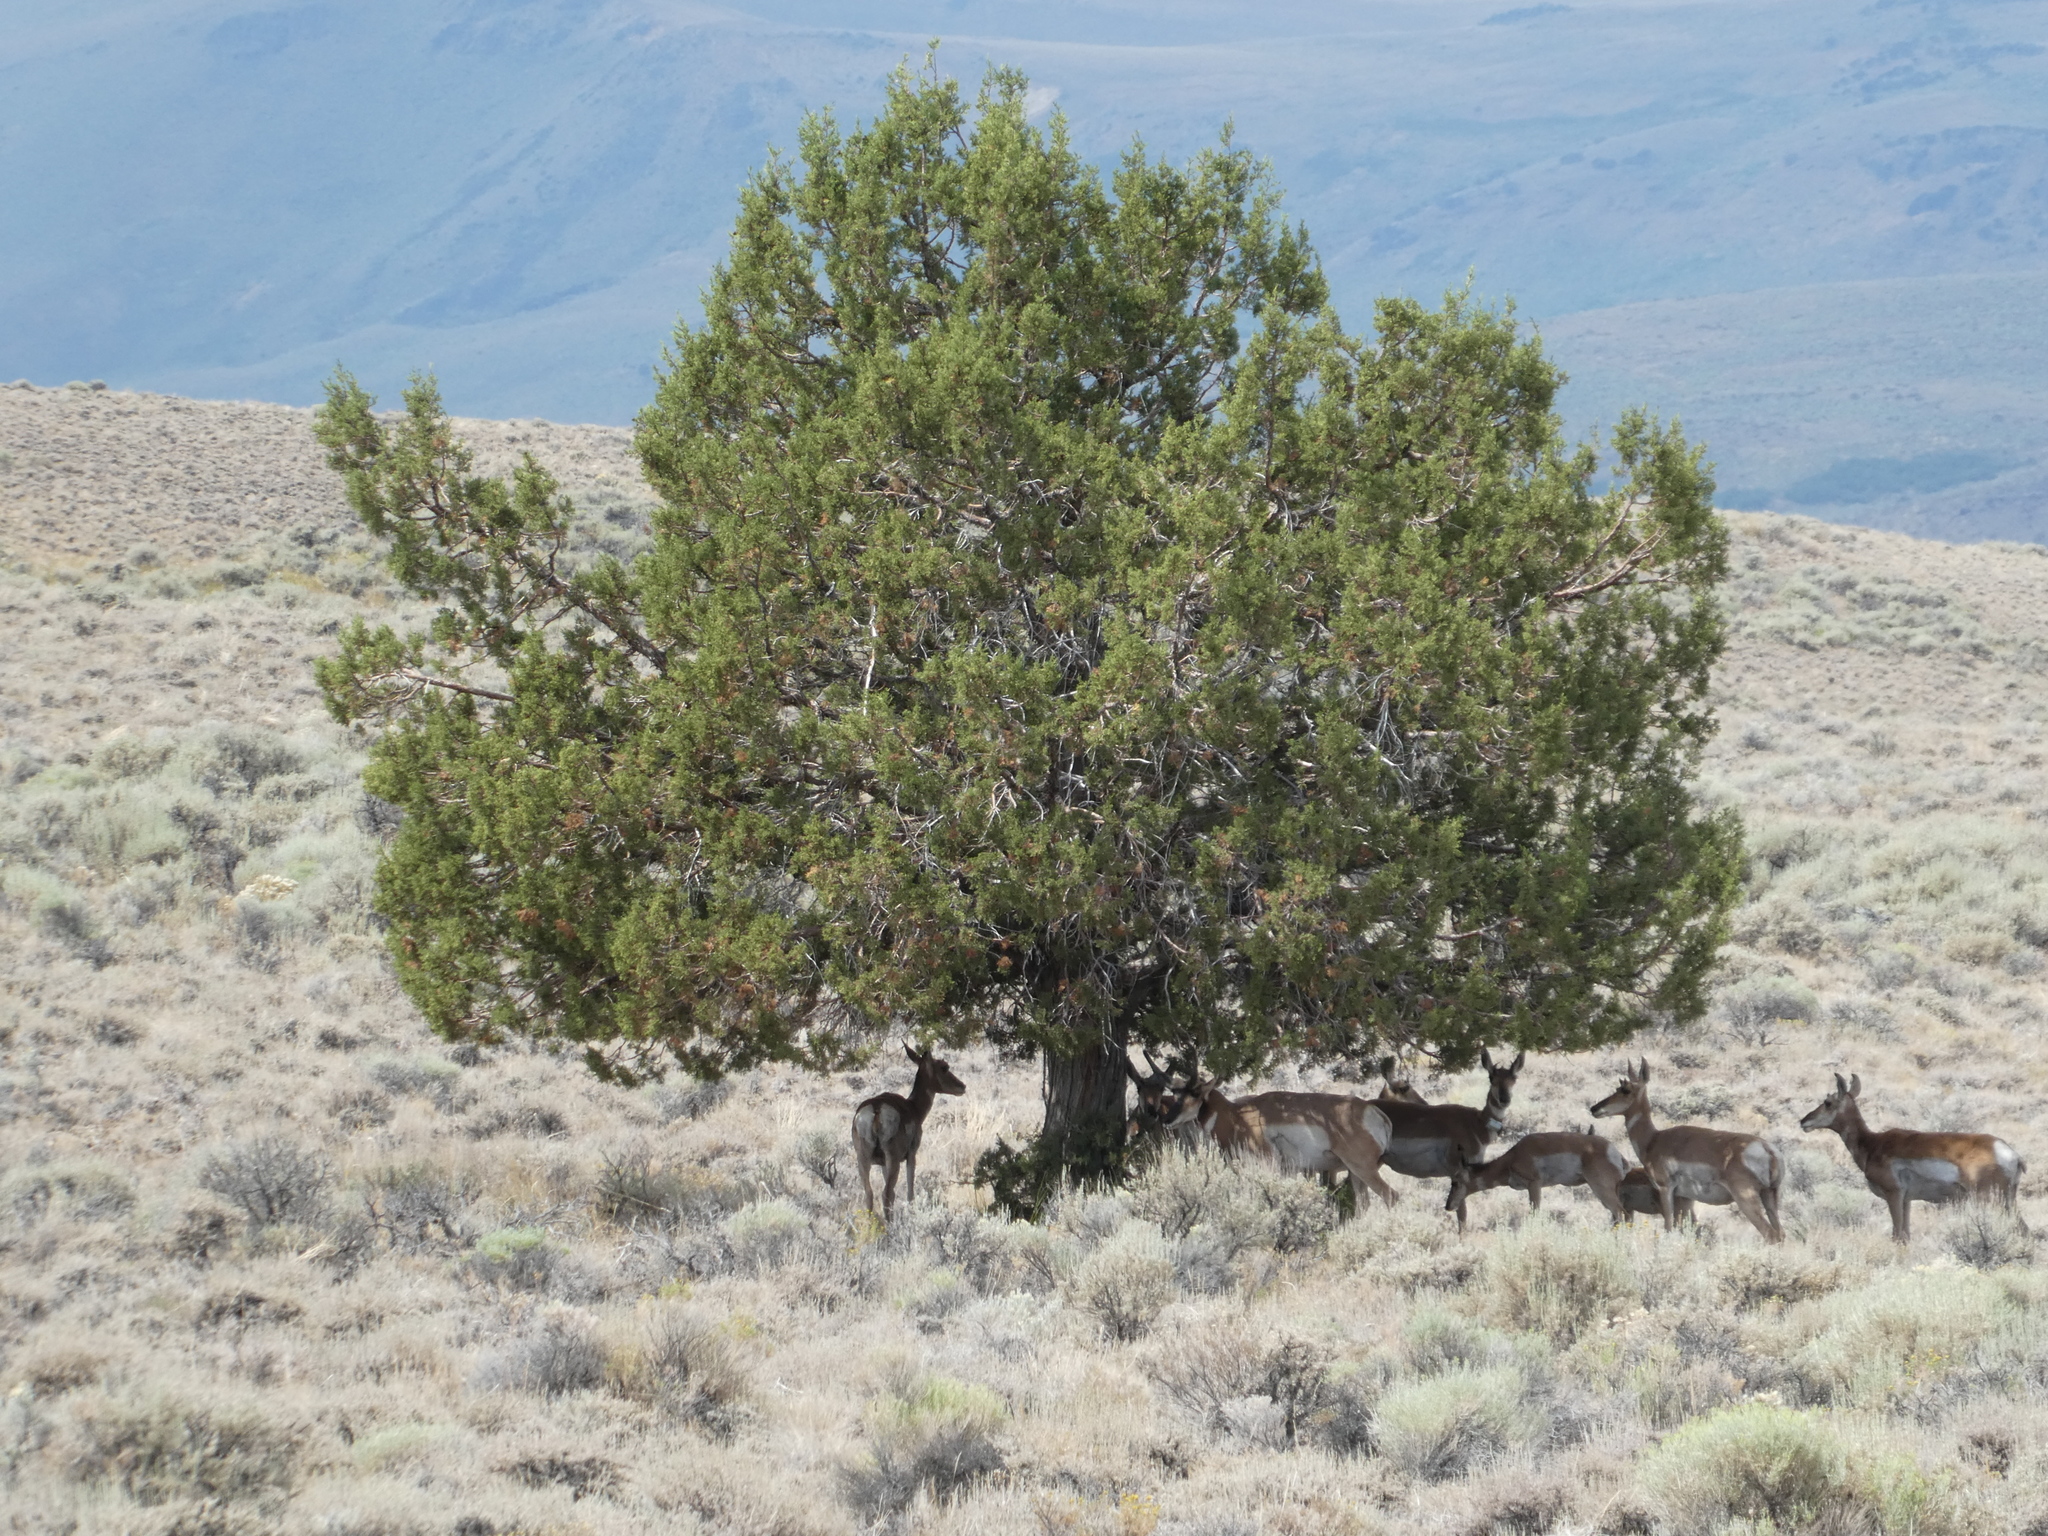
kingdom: Animalia
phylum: Chordata
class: Mammalia
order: Artiodactyla
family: Antilocapridae
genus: Antilocapra
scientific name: Antilocapra americana
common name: Pronghorn
